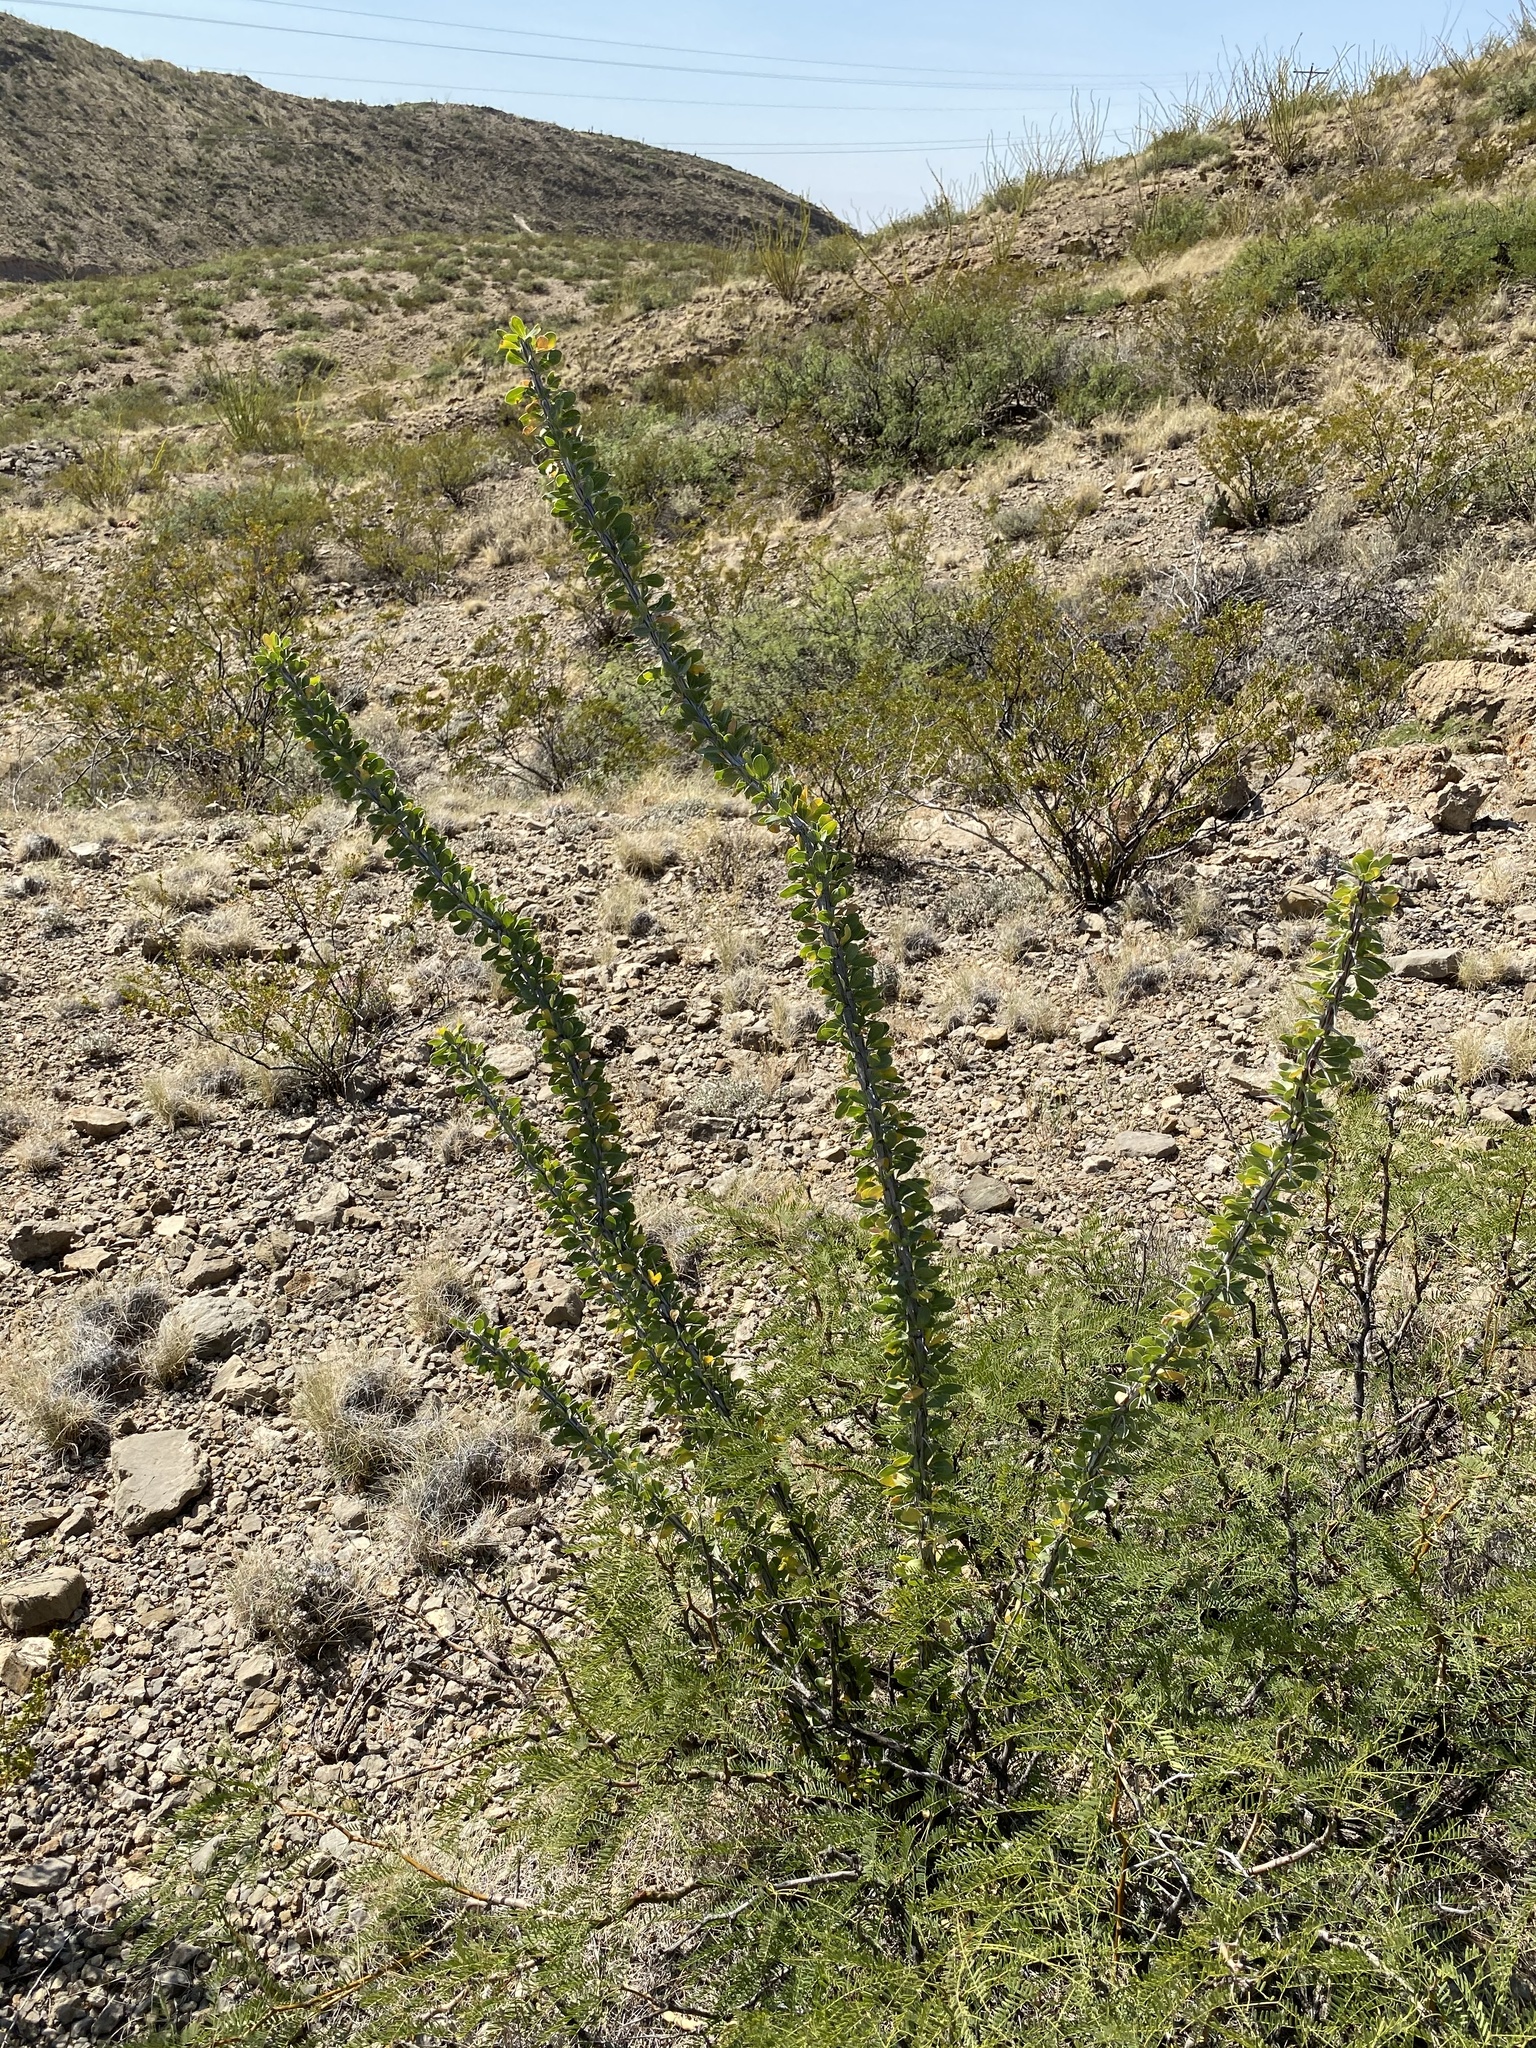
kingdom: Plantae
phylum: Tracheophyta
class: Magnoliopsida
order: Ericales
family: Fouquieriaceae
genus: Fouquieria
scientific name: Fouquieria splendens
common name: Vine-cactus
